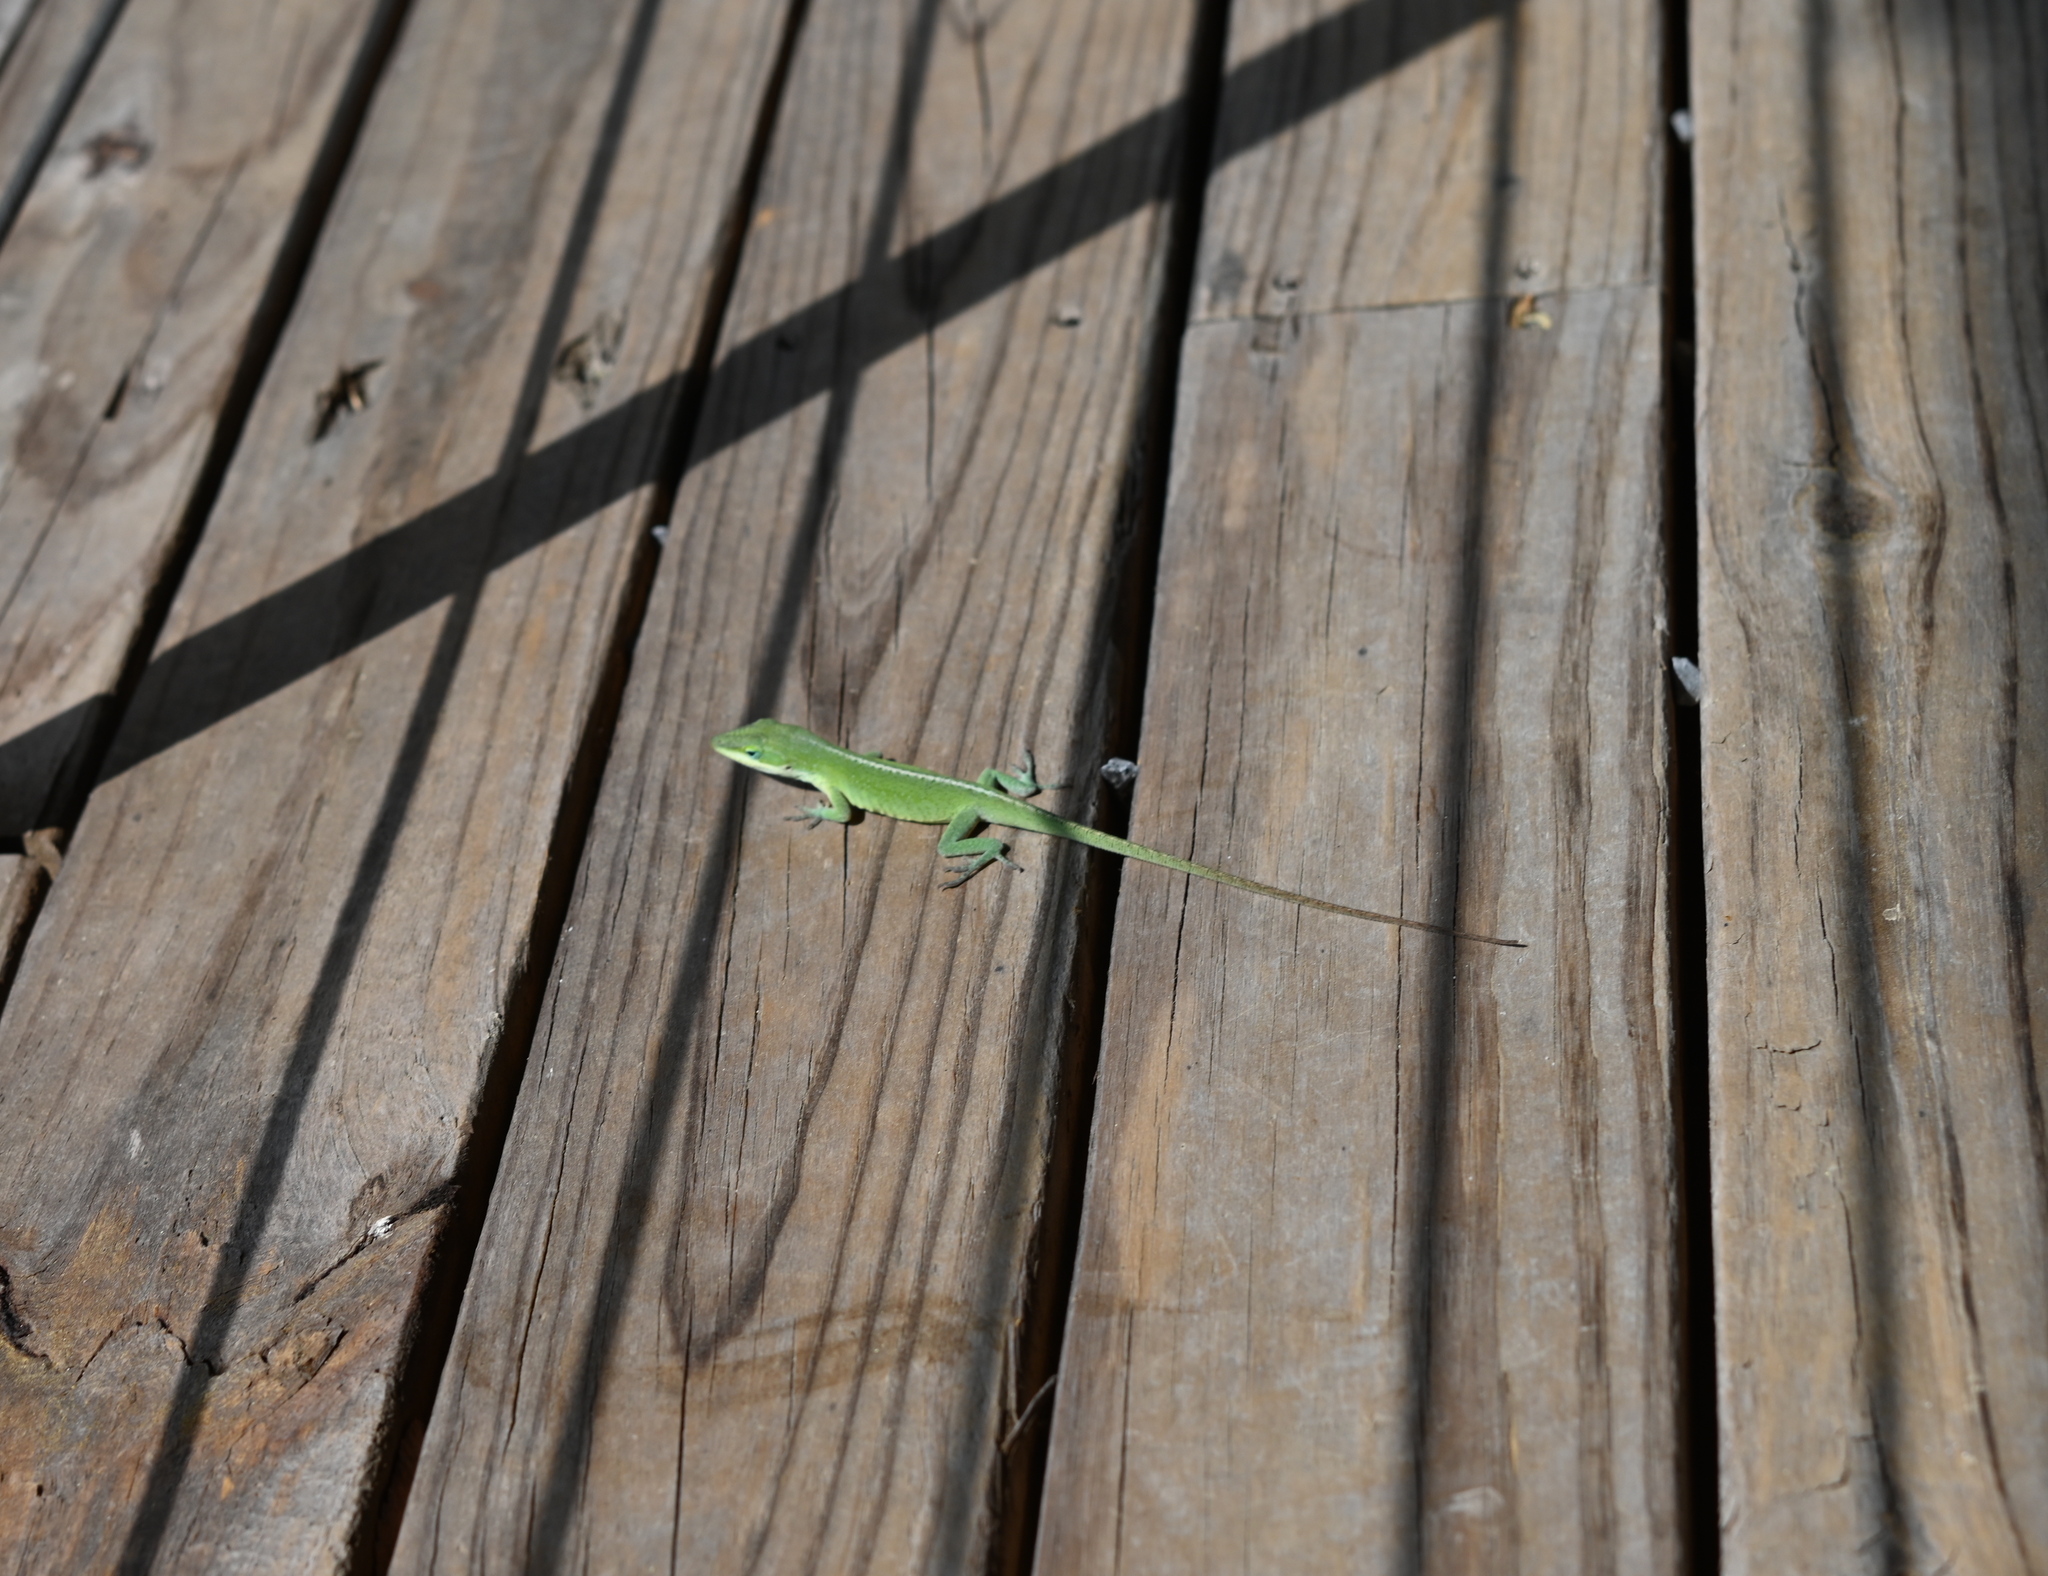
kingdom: Animalia
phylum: Chordata
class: Squamata
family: Dactyloidae
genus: Anolis
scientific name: Anolis carolinensis
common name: Green anole
